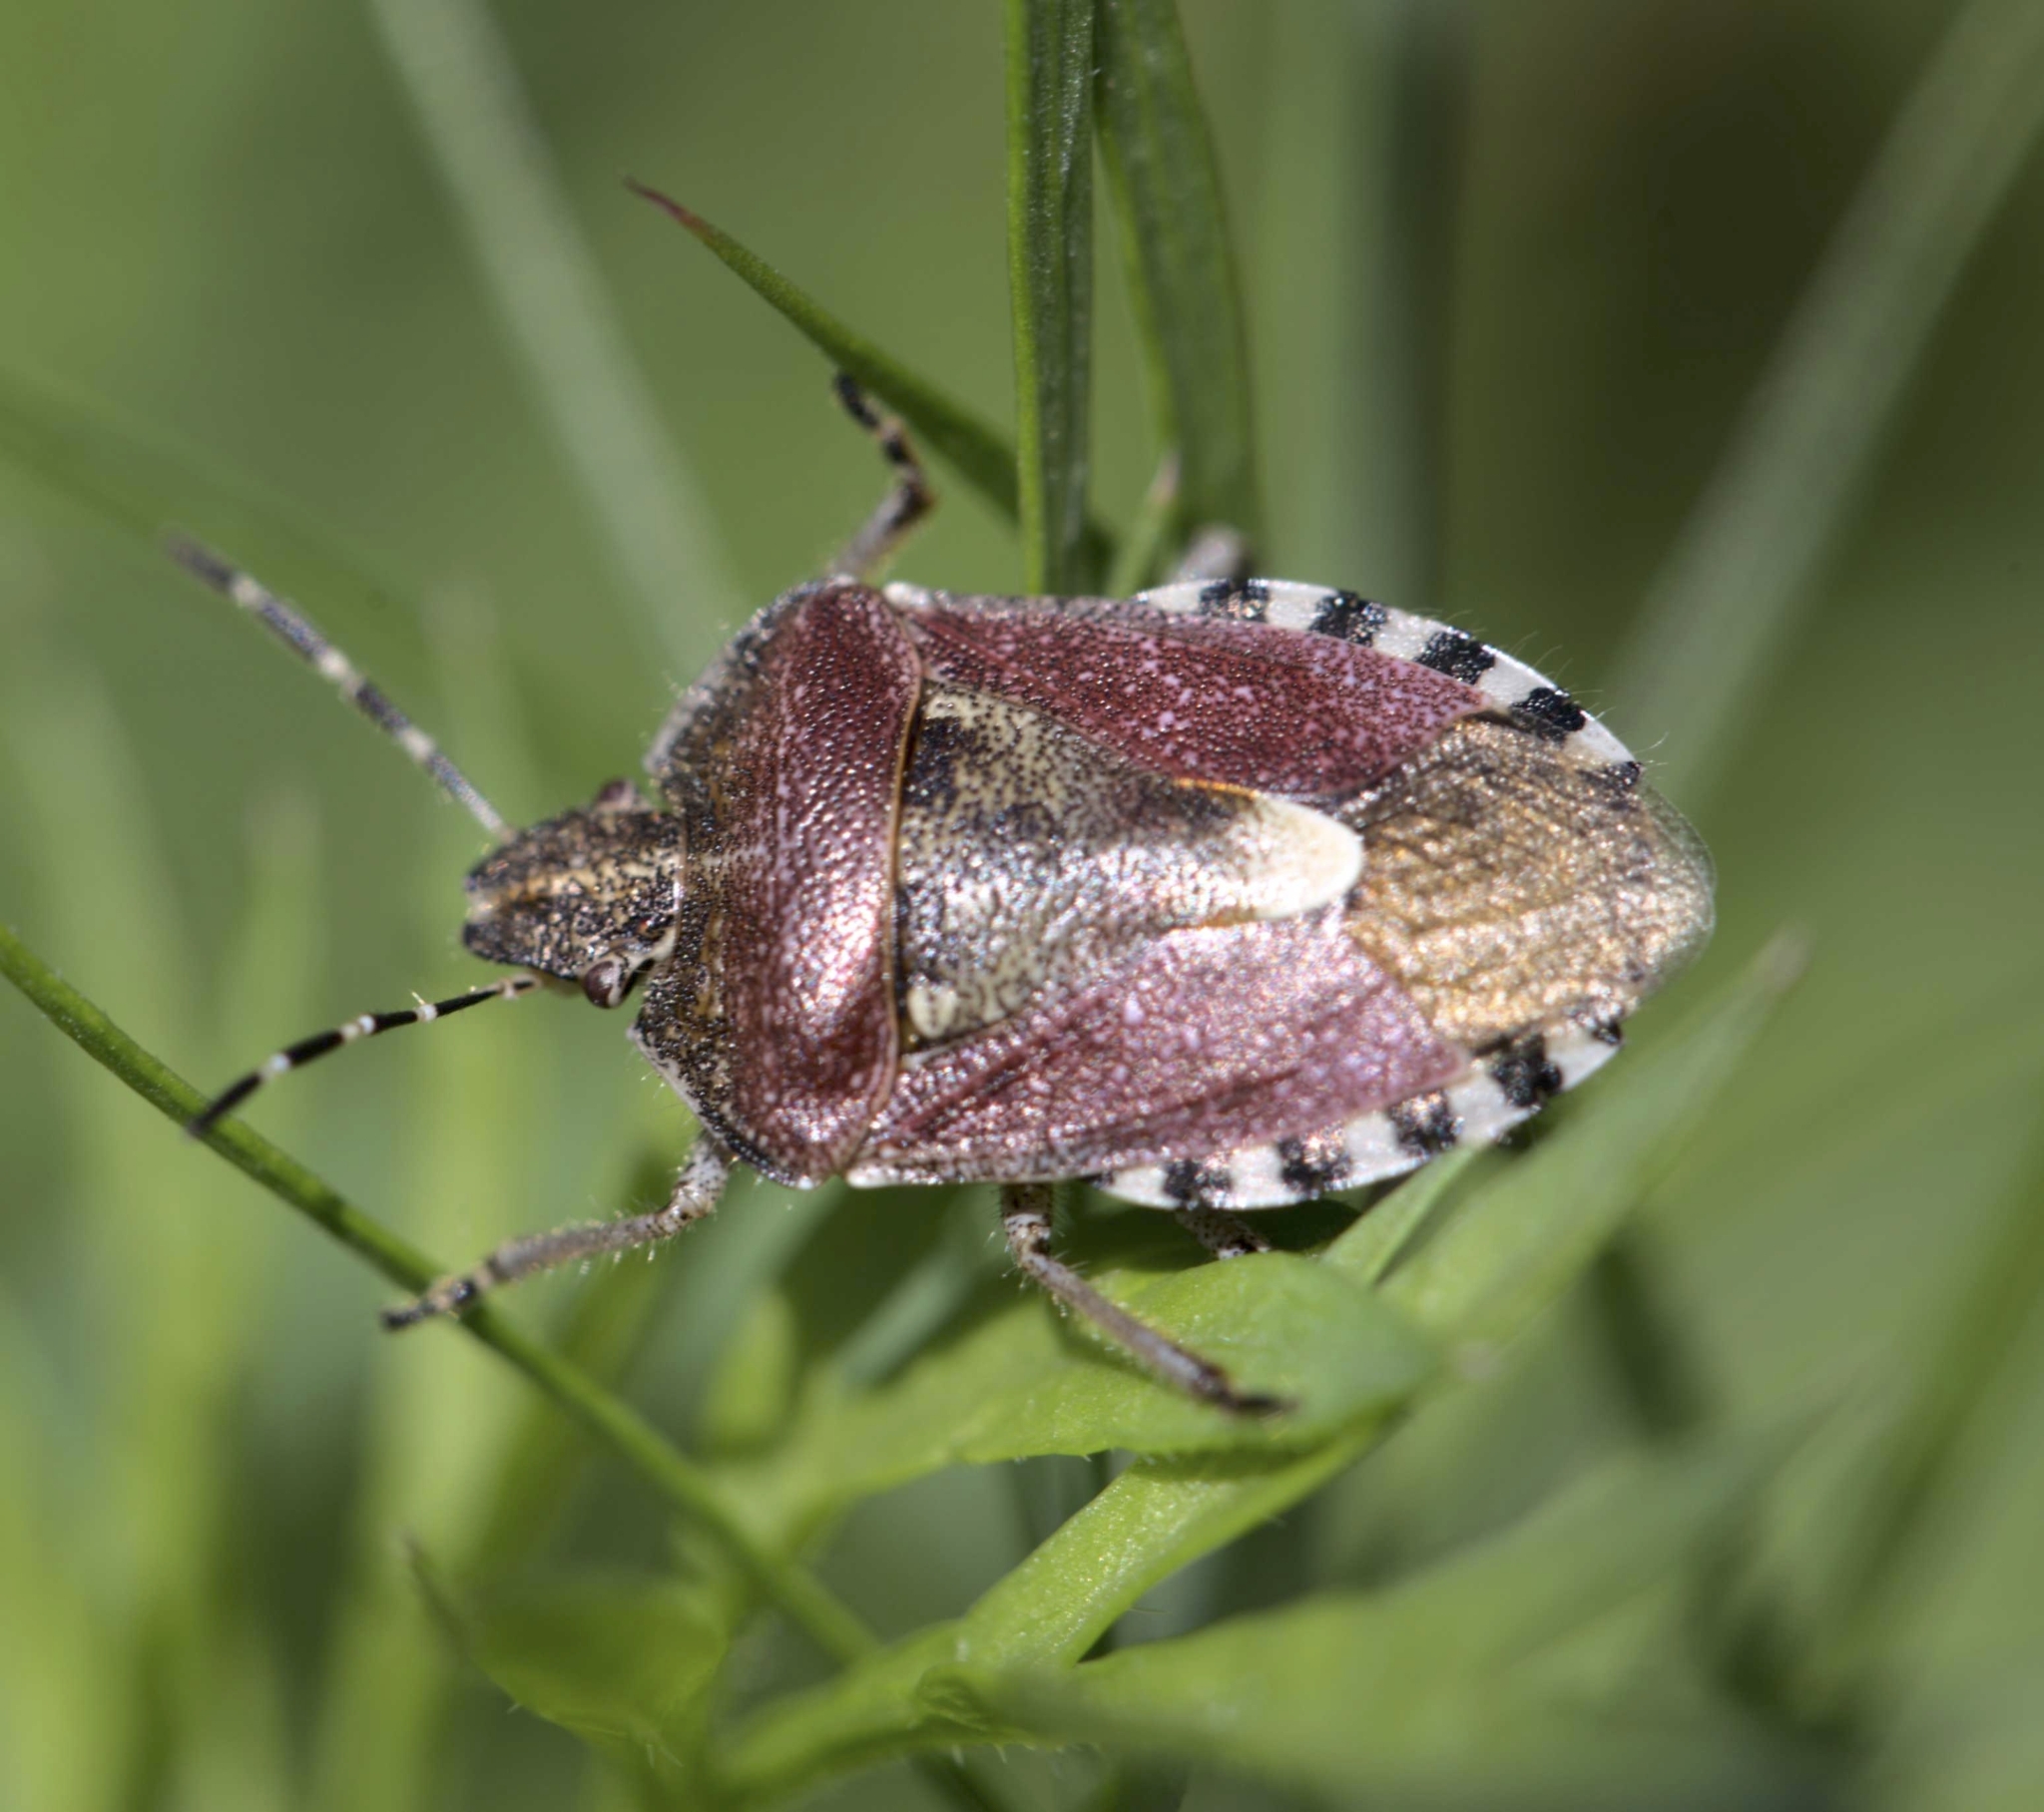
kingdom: Animalia
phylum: Arthropoda
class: Insecta
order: Hemiptera
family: Pentatomidae
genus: Dolycoris
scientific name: Dolycoris baccarum
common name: Sloe bug
